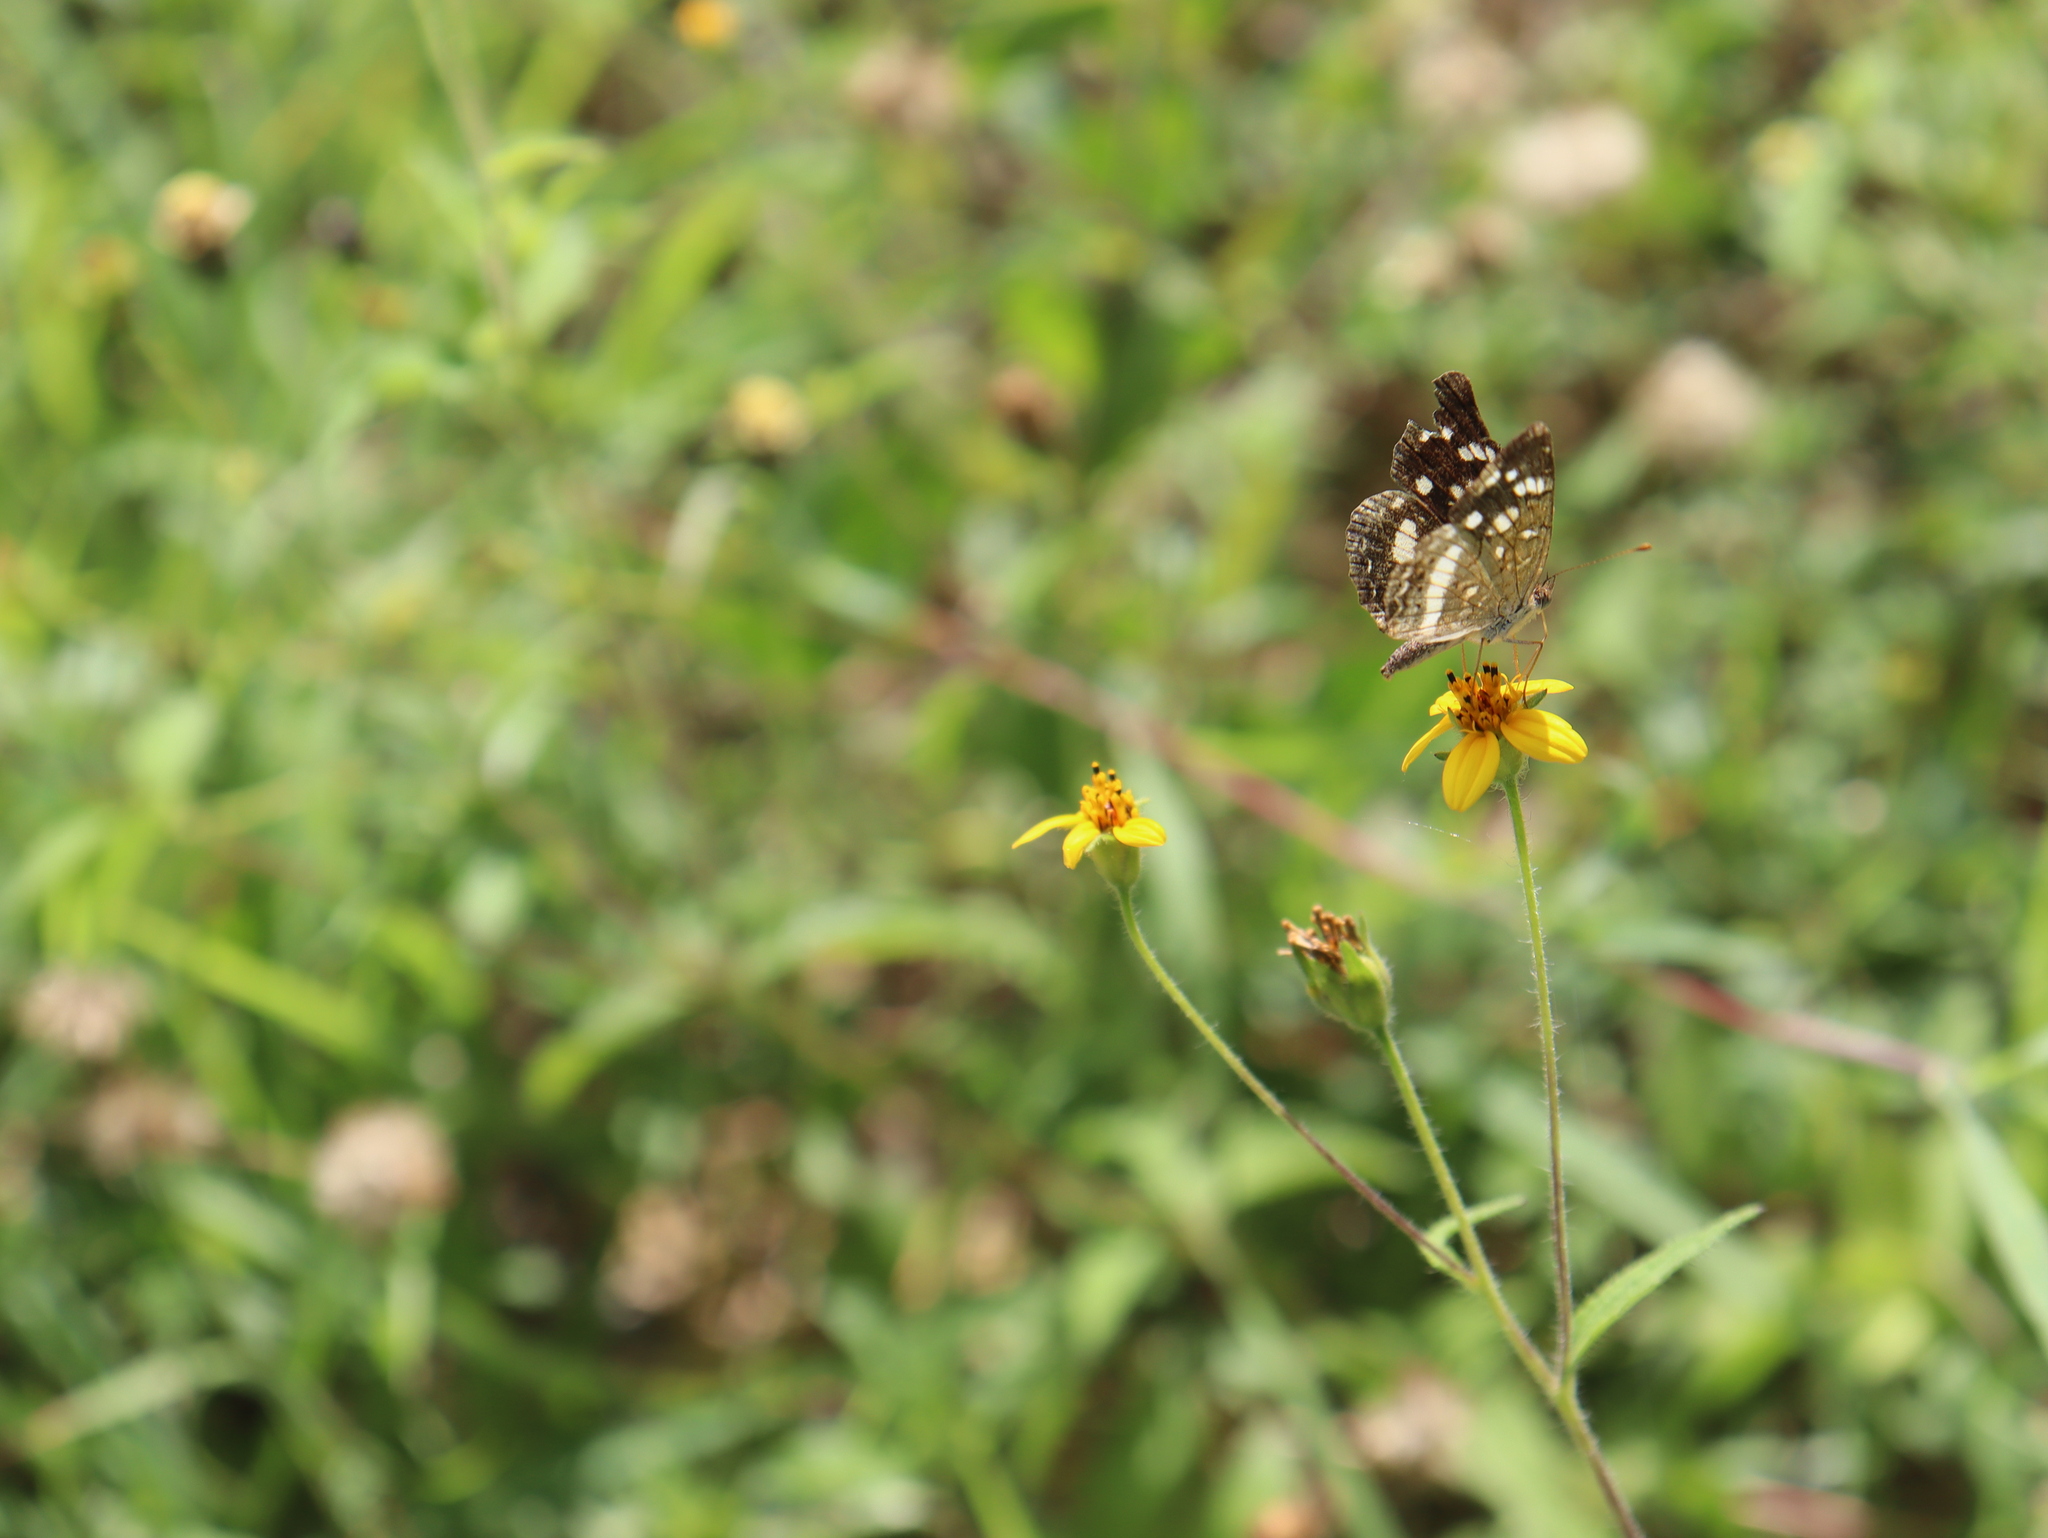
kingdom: Animalia
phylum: Arthropoda
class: Insecta
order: Lepidoptera
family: Nymphalidae
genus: Anthanassa
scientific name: Anthanassa tulcis
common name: Pale-banded crescent
